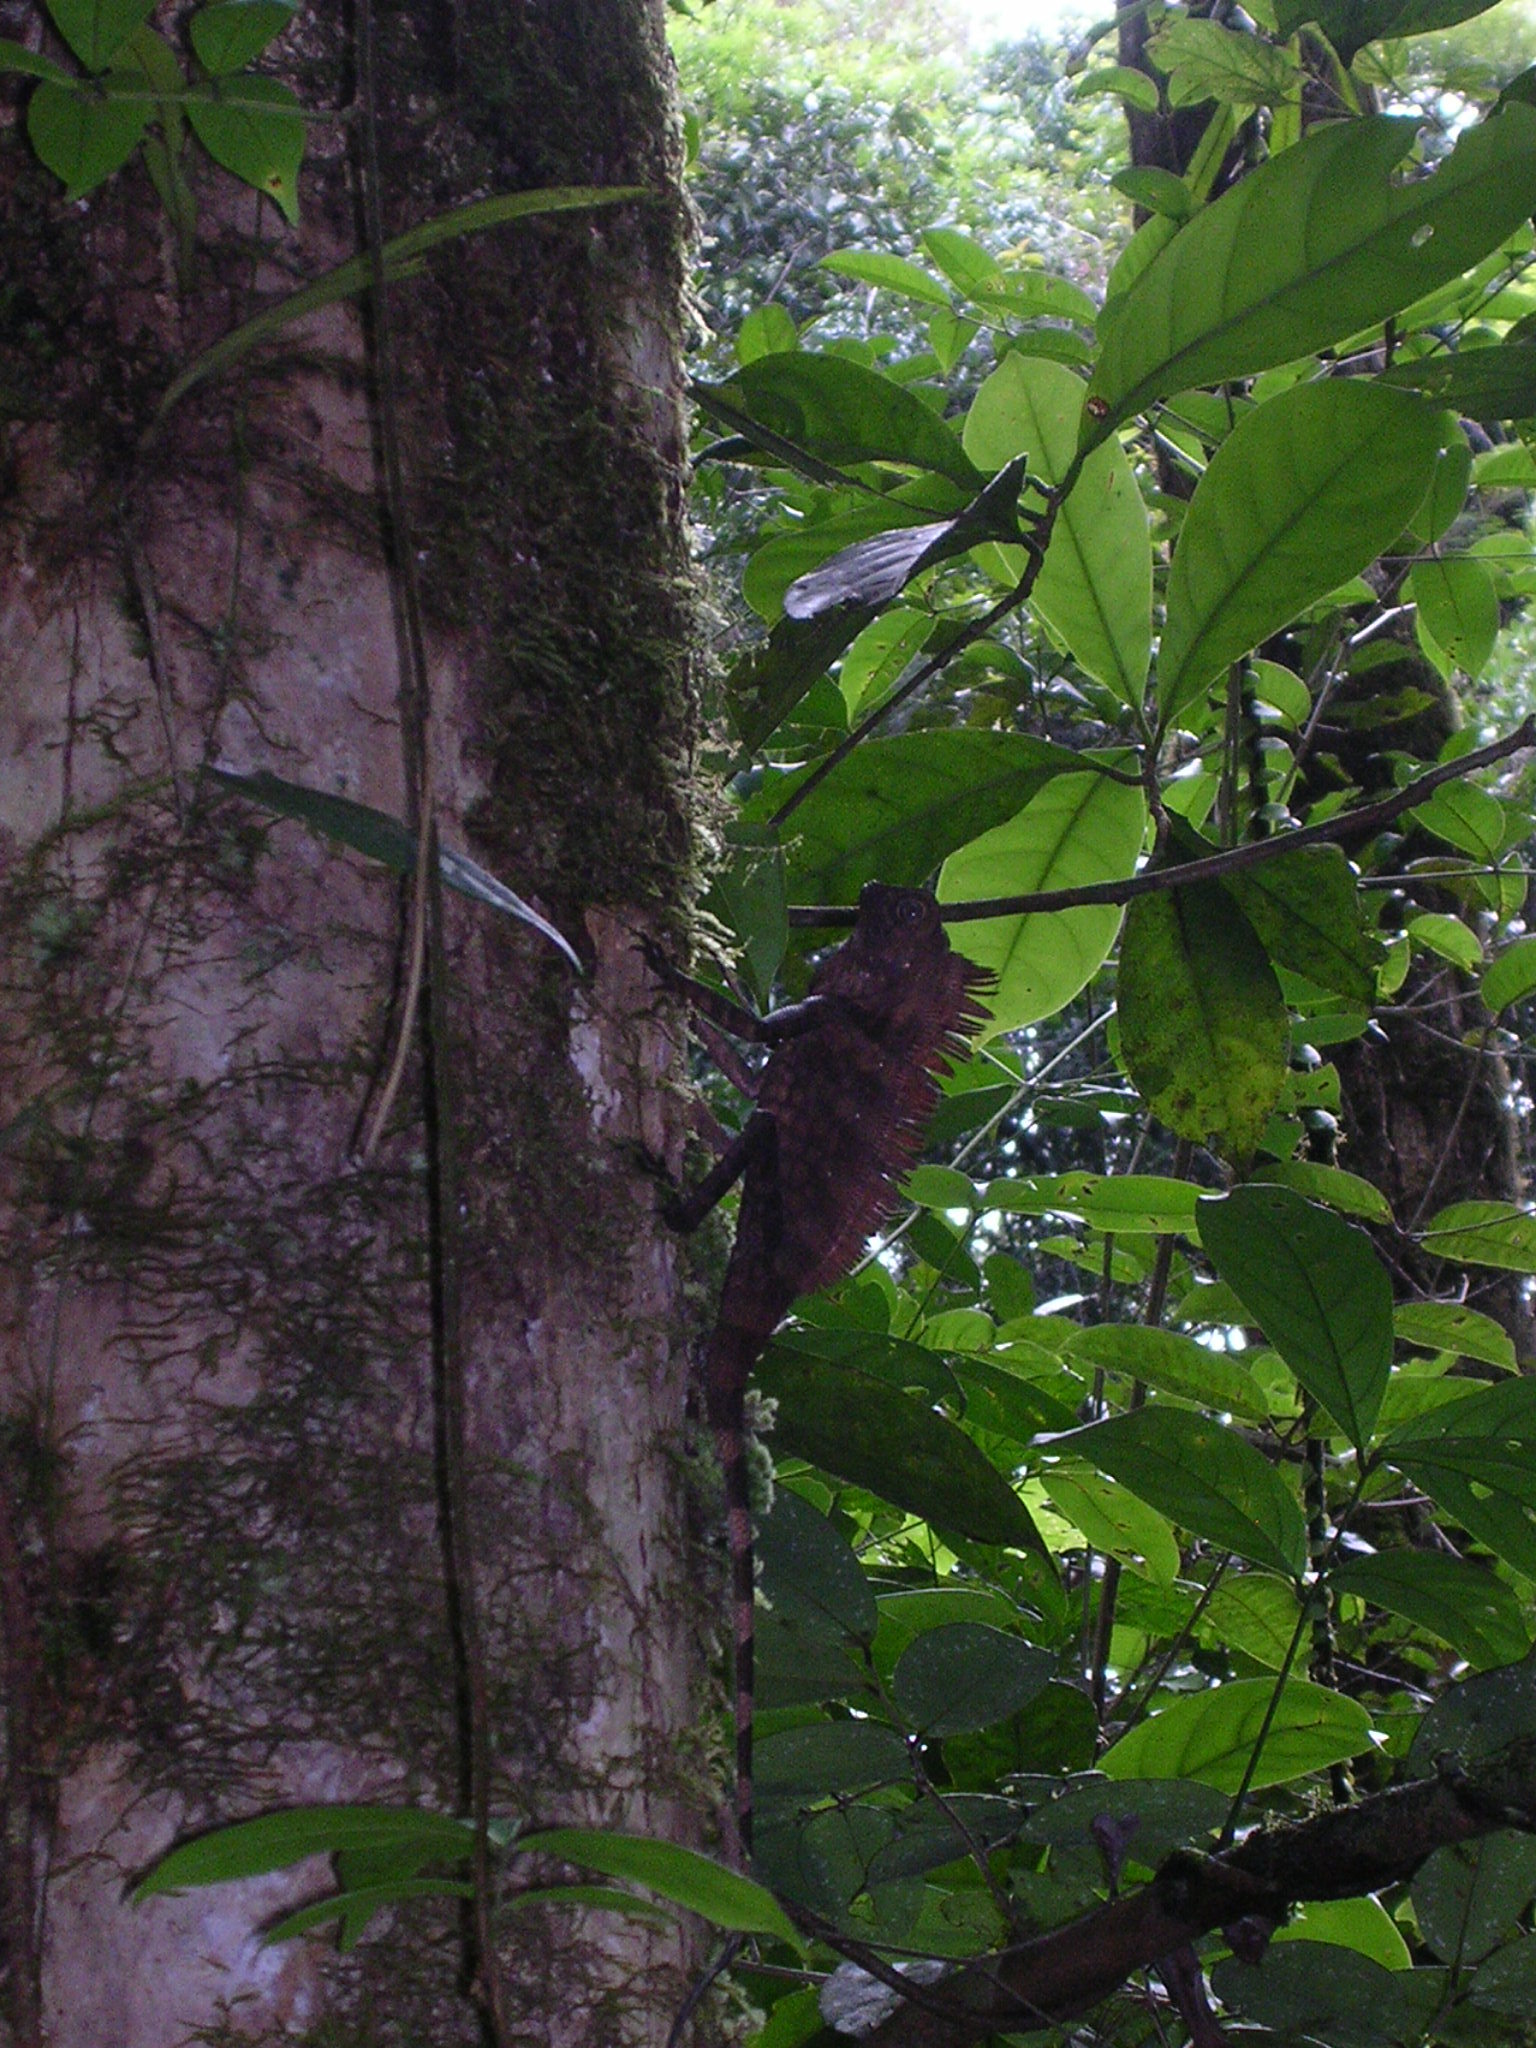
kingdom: Animalia
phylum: Chordata
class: Squamata
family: Agamidae
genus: Gonocephalus
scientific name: Gonocephalus bornensis
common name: Borneo forest dragon
